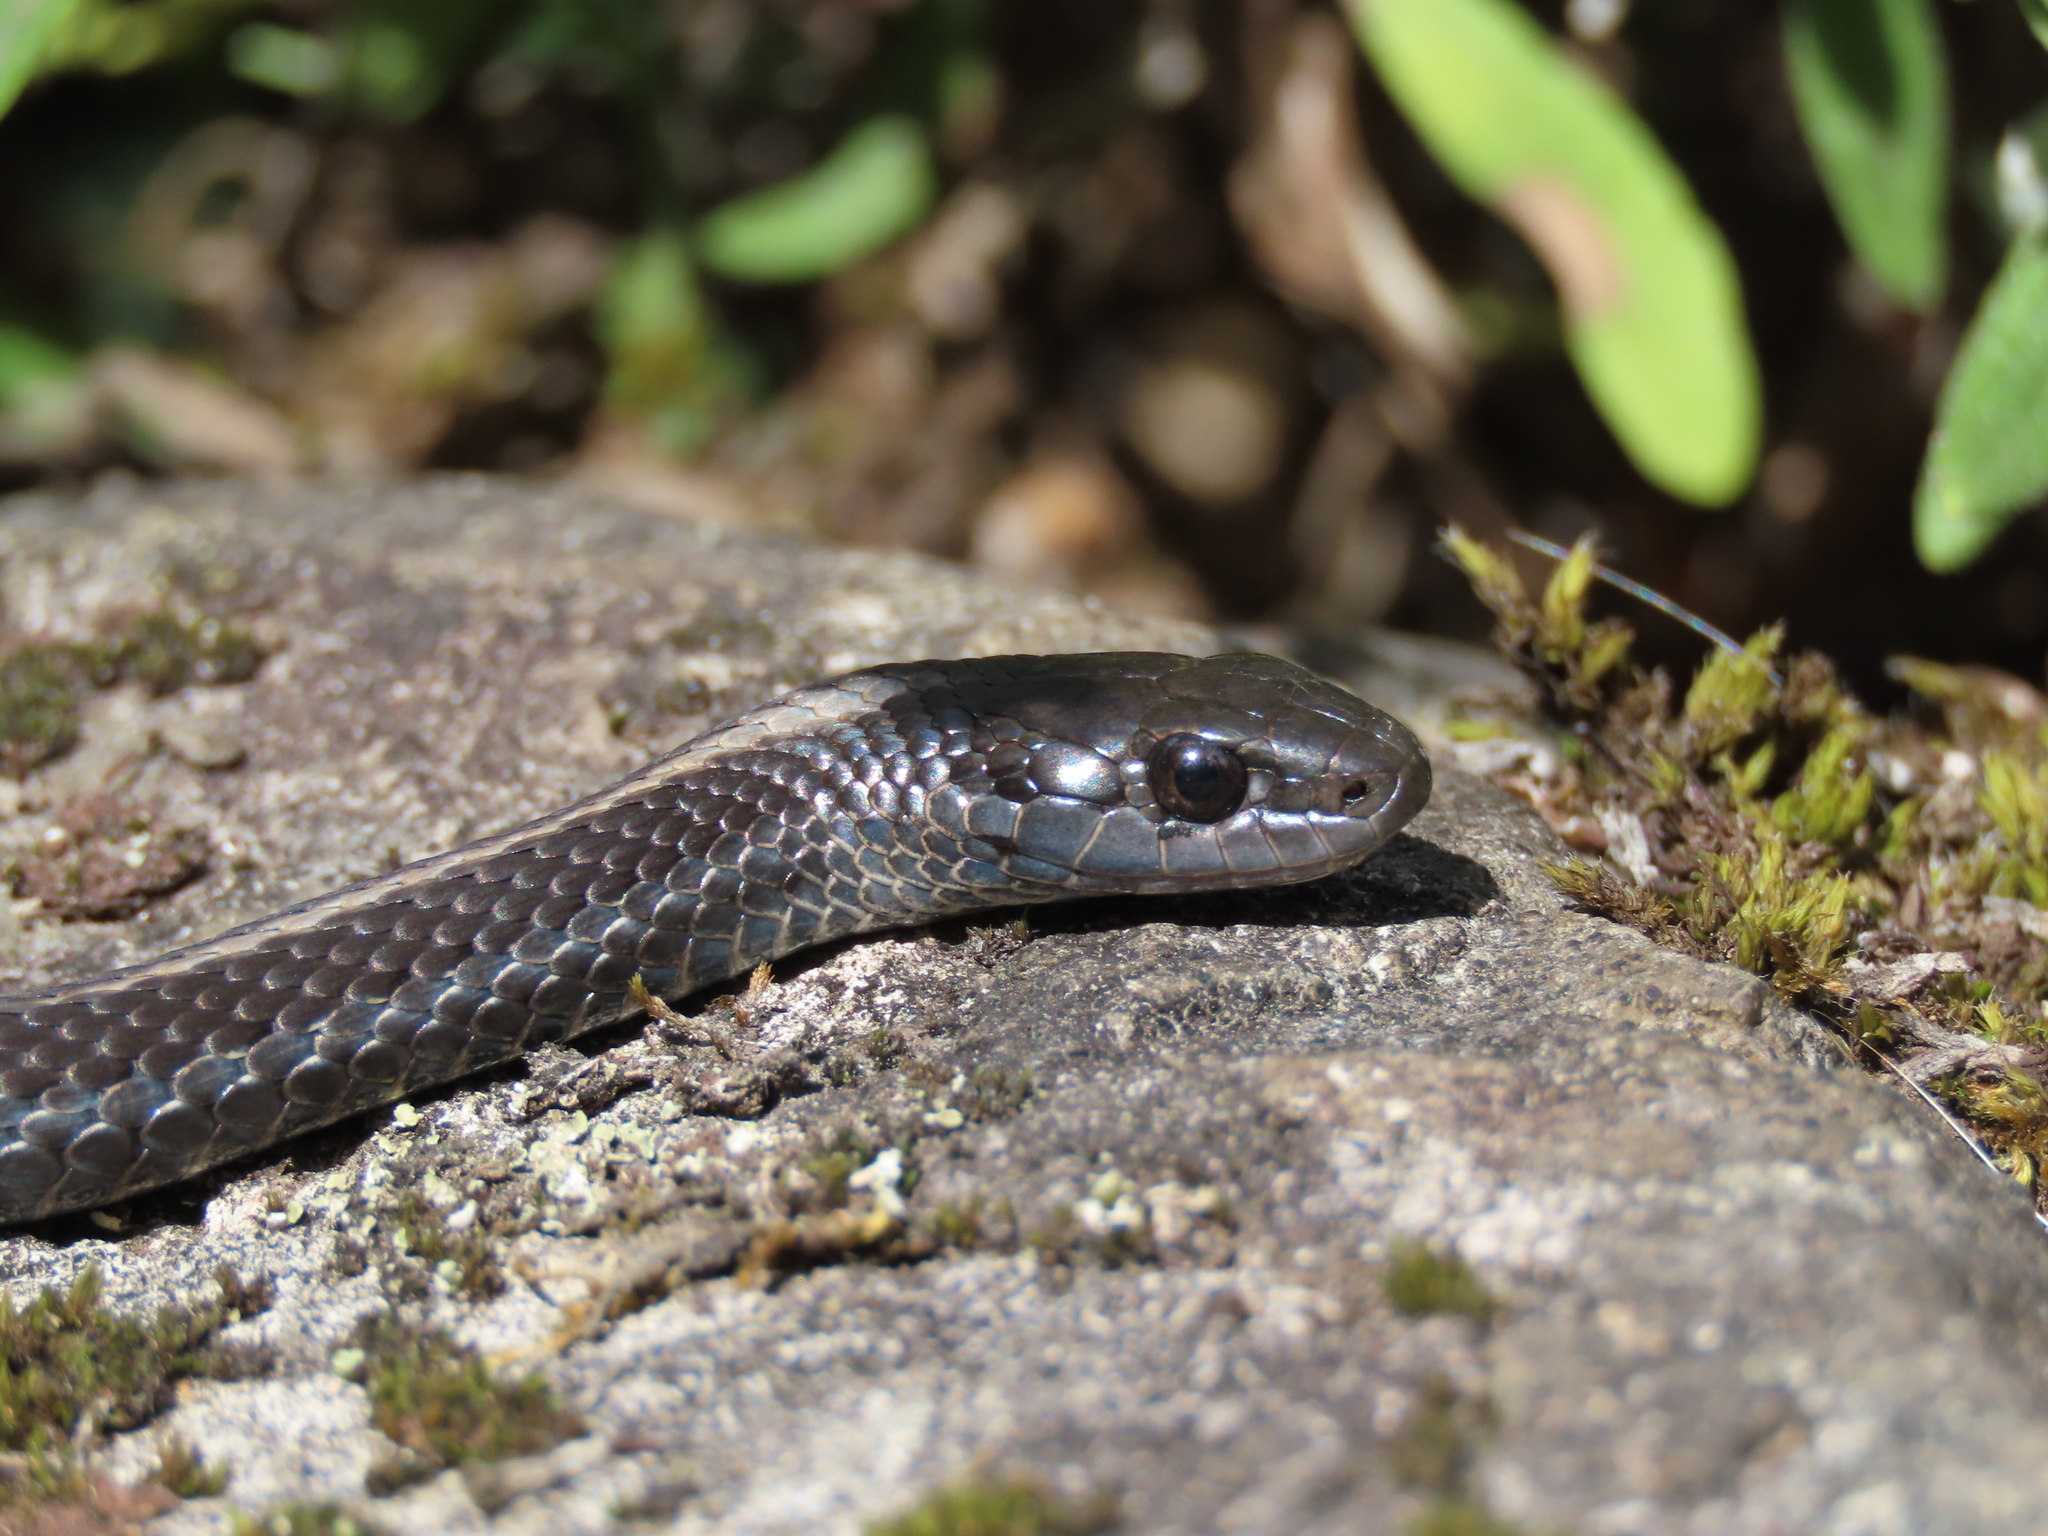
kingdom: Animalia
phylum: Chordata
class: Squamata
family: Colubridae
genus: Thamnophis
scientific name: Thamnophis ordinoides
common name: Northwestern garter snake
